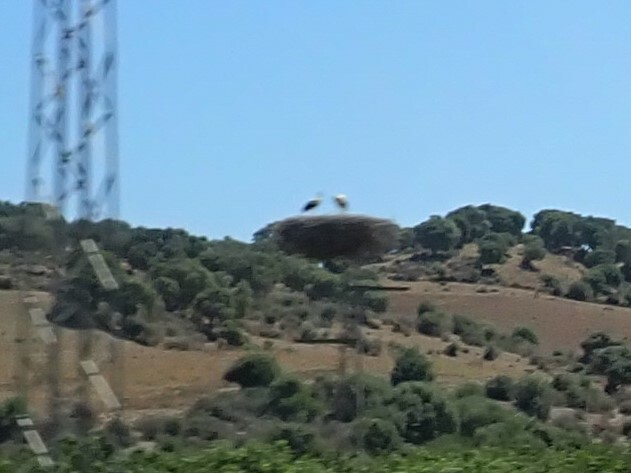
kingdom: Animalia
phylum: Chordata
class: Aves
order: Ciconiiformes
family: Ciconiidae
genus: Ciconia
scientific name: Ciconia ciconia
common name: White stork
